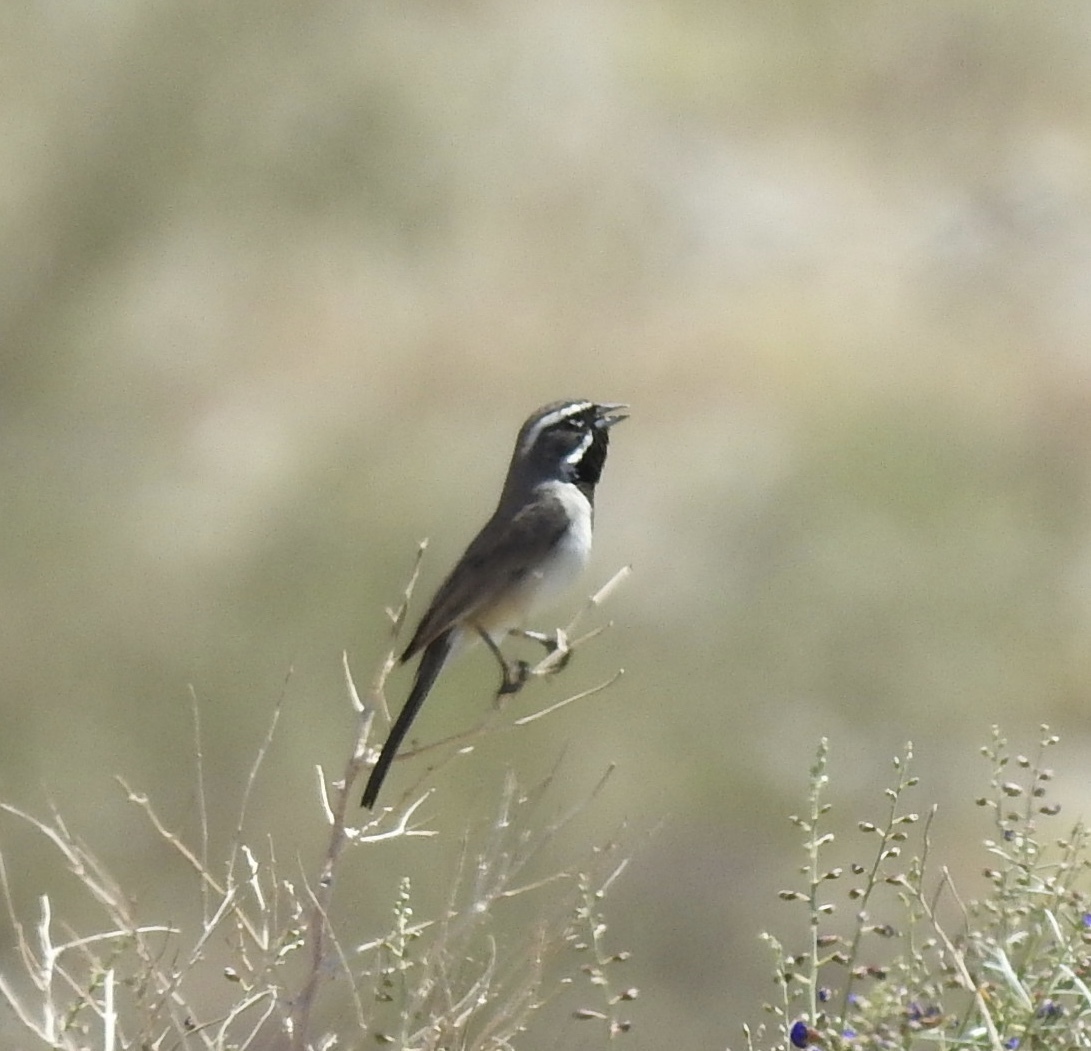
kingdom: Animalia
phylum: Chordata
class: Aves
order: Passeriformes
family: Passerellidae
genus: Amphispiza
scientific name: Amphispiza bilineata
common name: Black-throated sparrow
